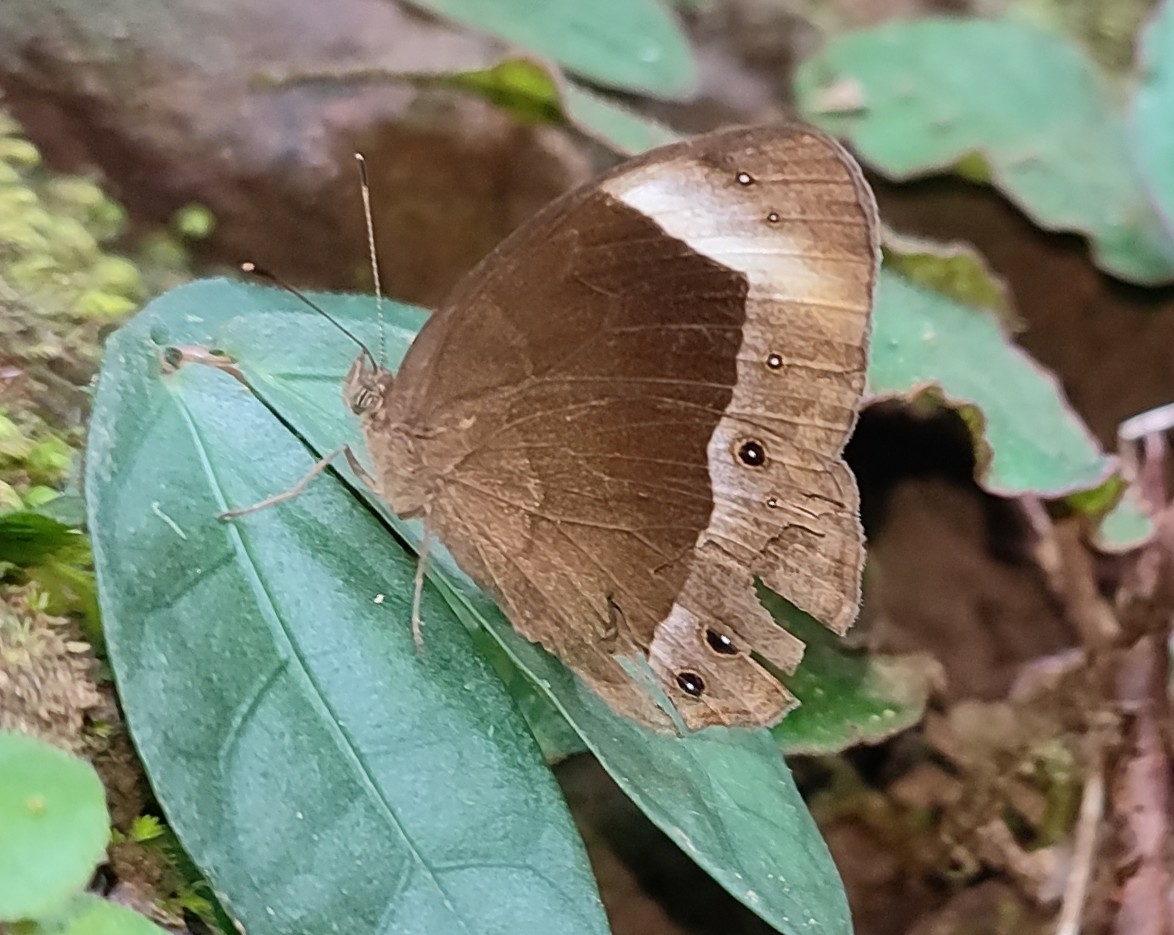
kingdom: Animalia
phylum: Arthropoda
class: Insecta
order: Lepidoptera
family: Nymphalidae
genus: Mycalesis
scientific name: Mycalesis anaxias
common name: White-bar bushbrown
